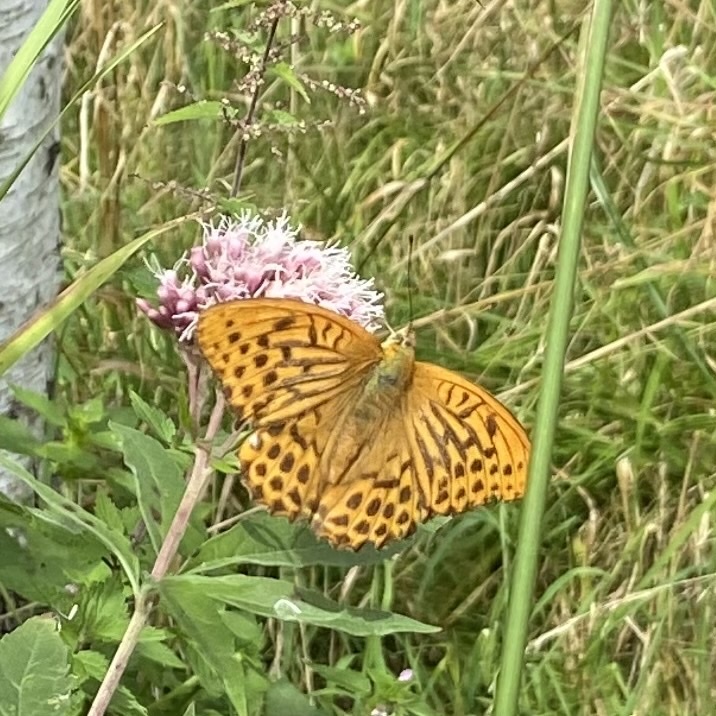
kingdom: Animalia
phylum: Arthropoda
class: Insecta
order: Lepidoptera
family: Nymphalidae
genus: Argynnis
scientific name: Argynnis paphia
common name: Silver-washed fritillary
